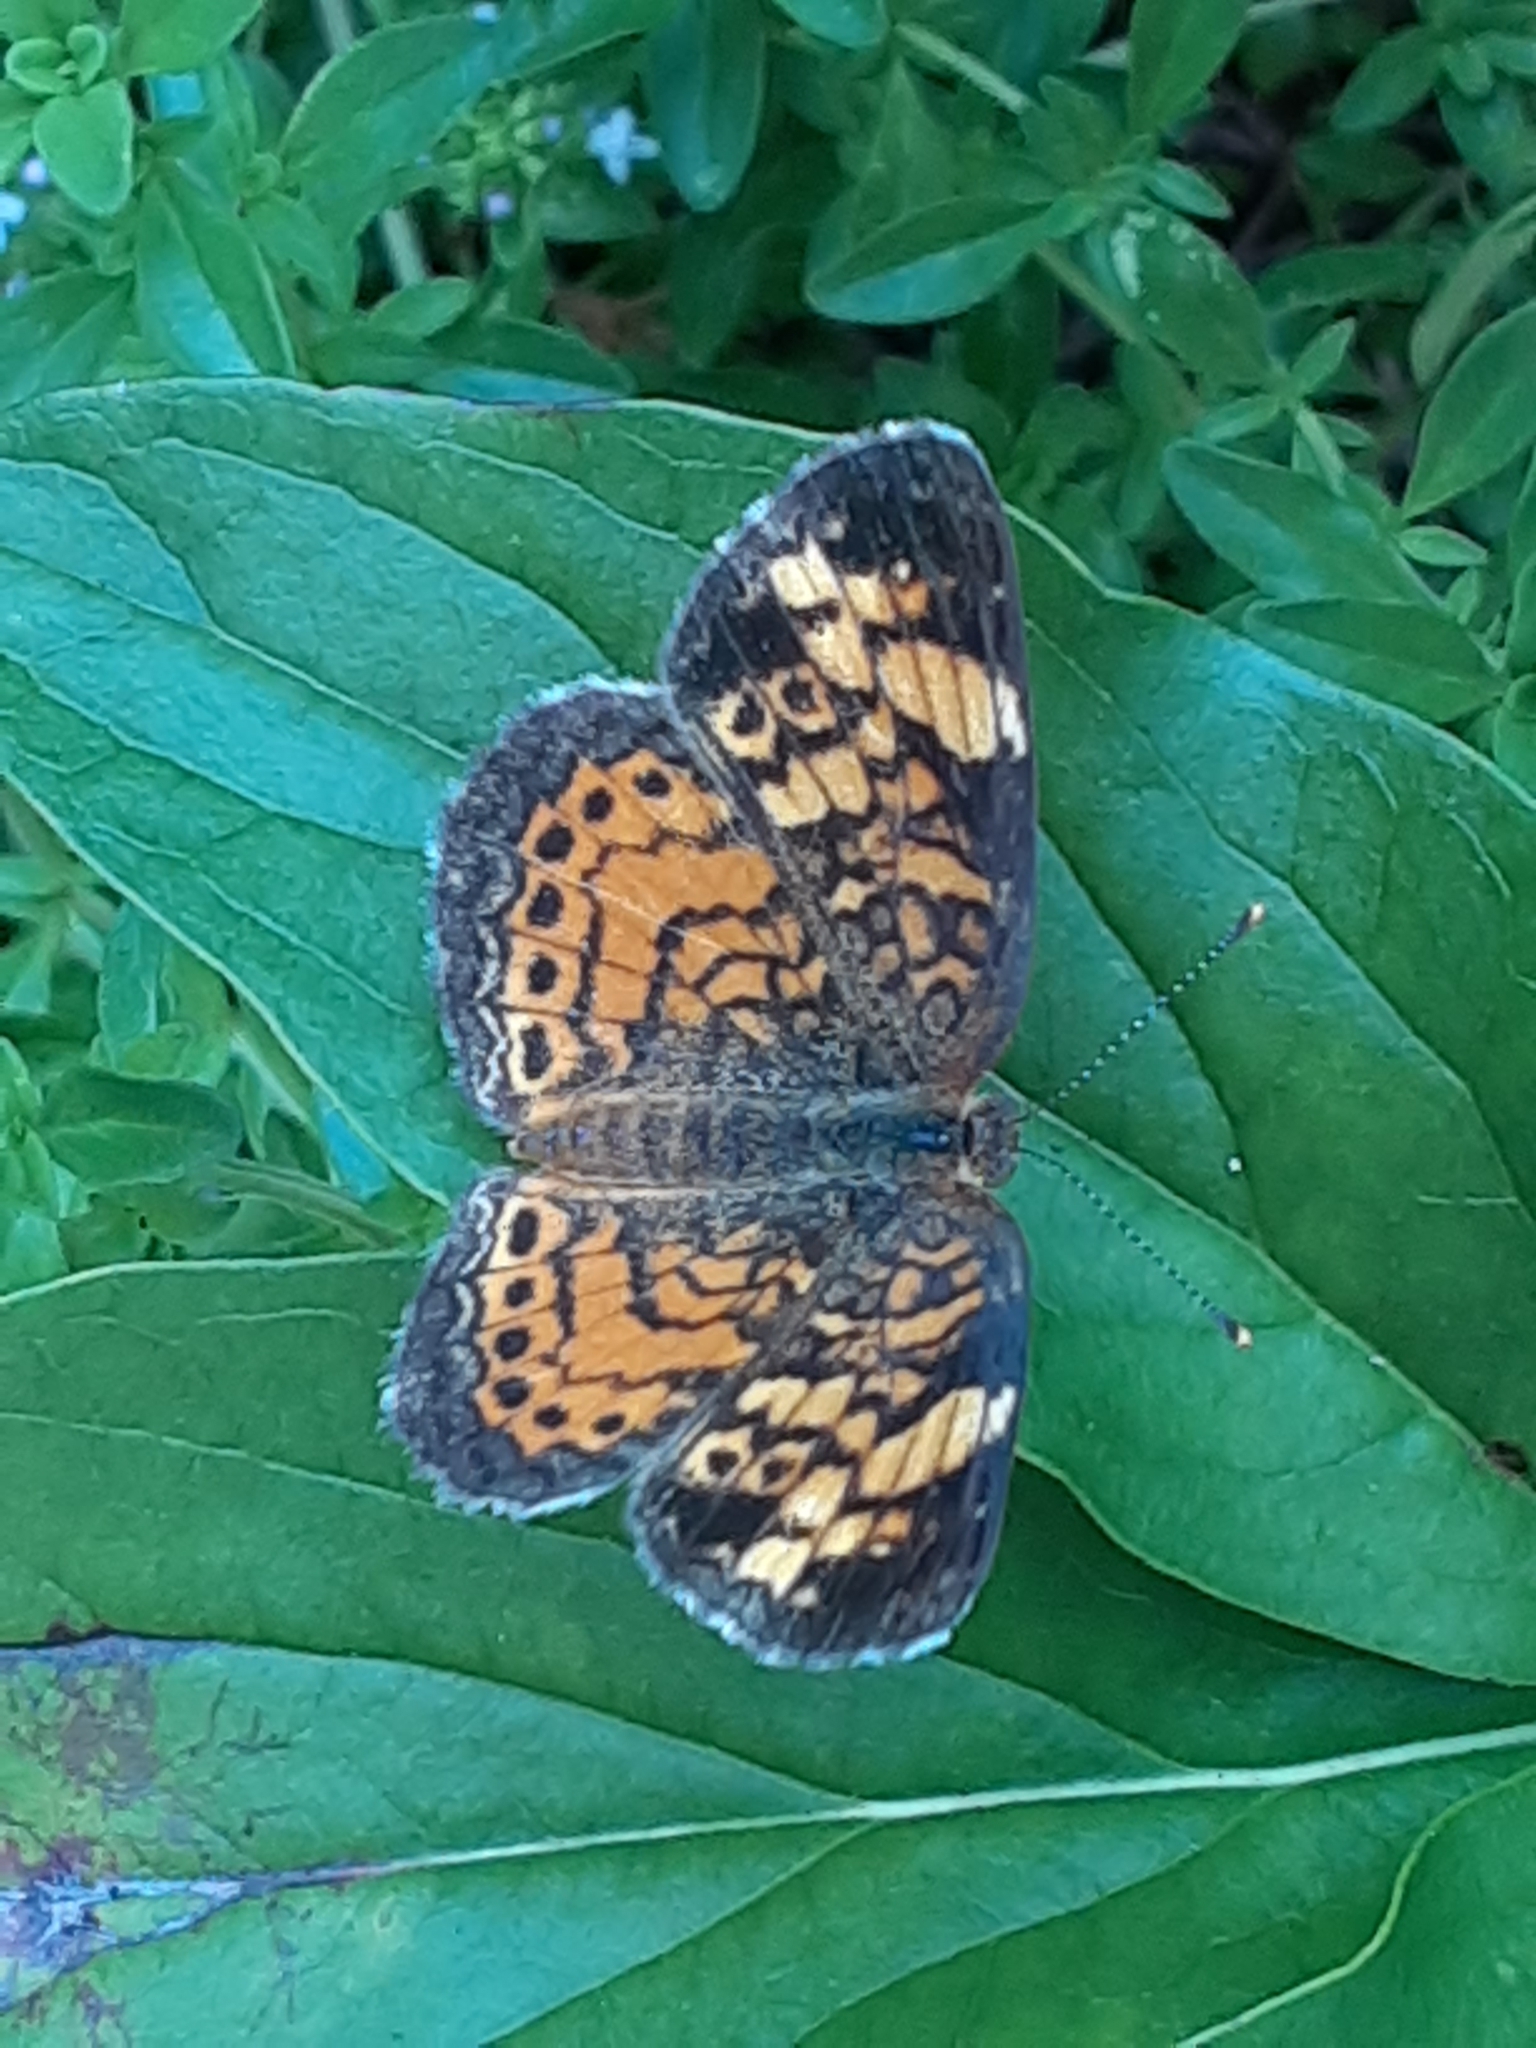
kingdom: Animalia
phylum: Arthropoda
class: Insecta
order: Lepidoptera
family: Nymphalidae
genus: Phyciodes
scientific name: Phyciodes tharos
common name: Pearl crescent
